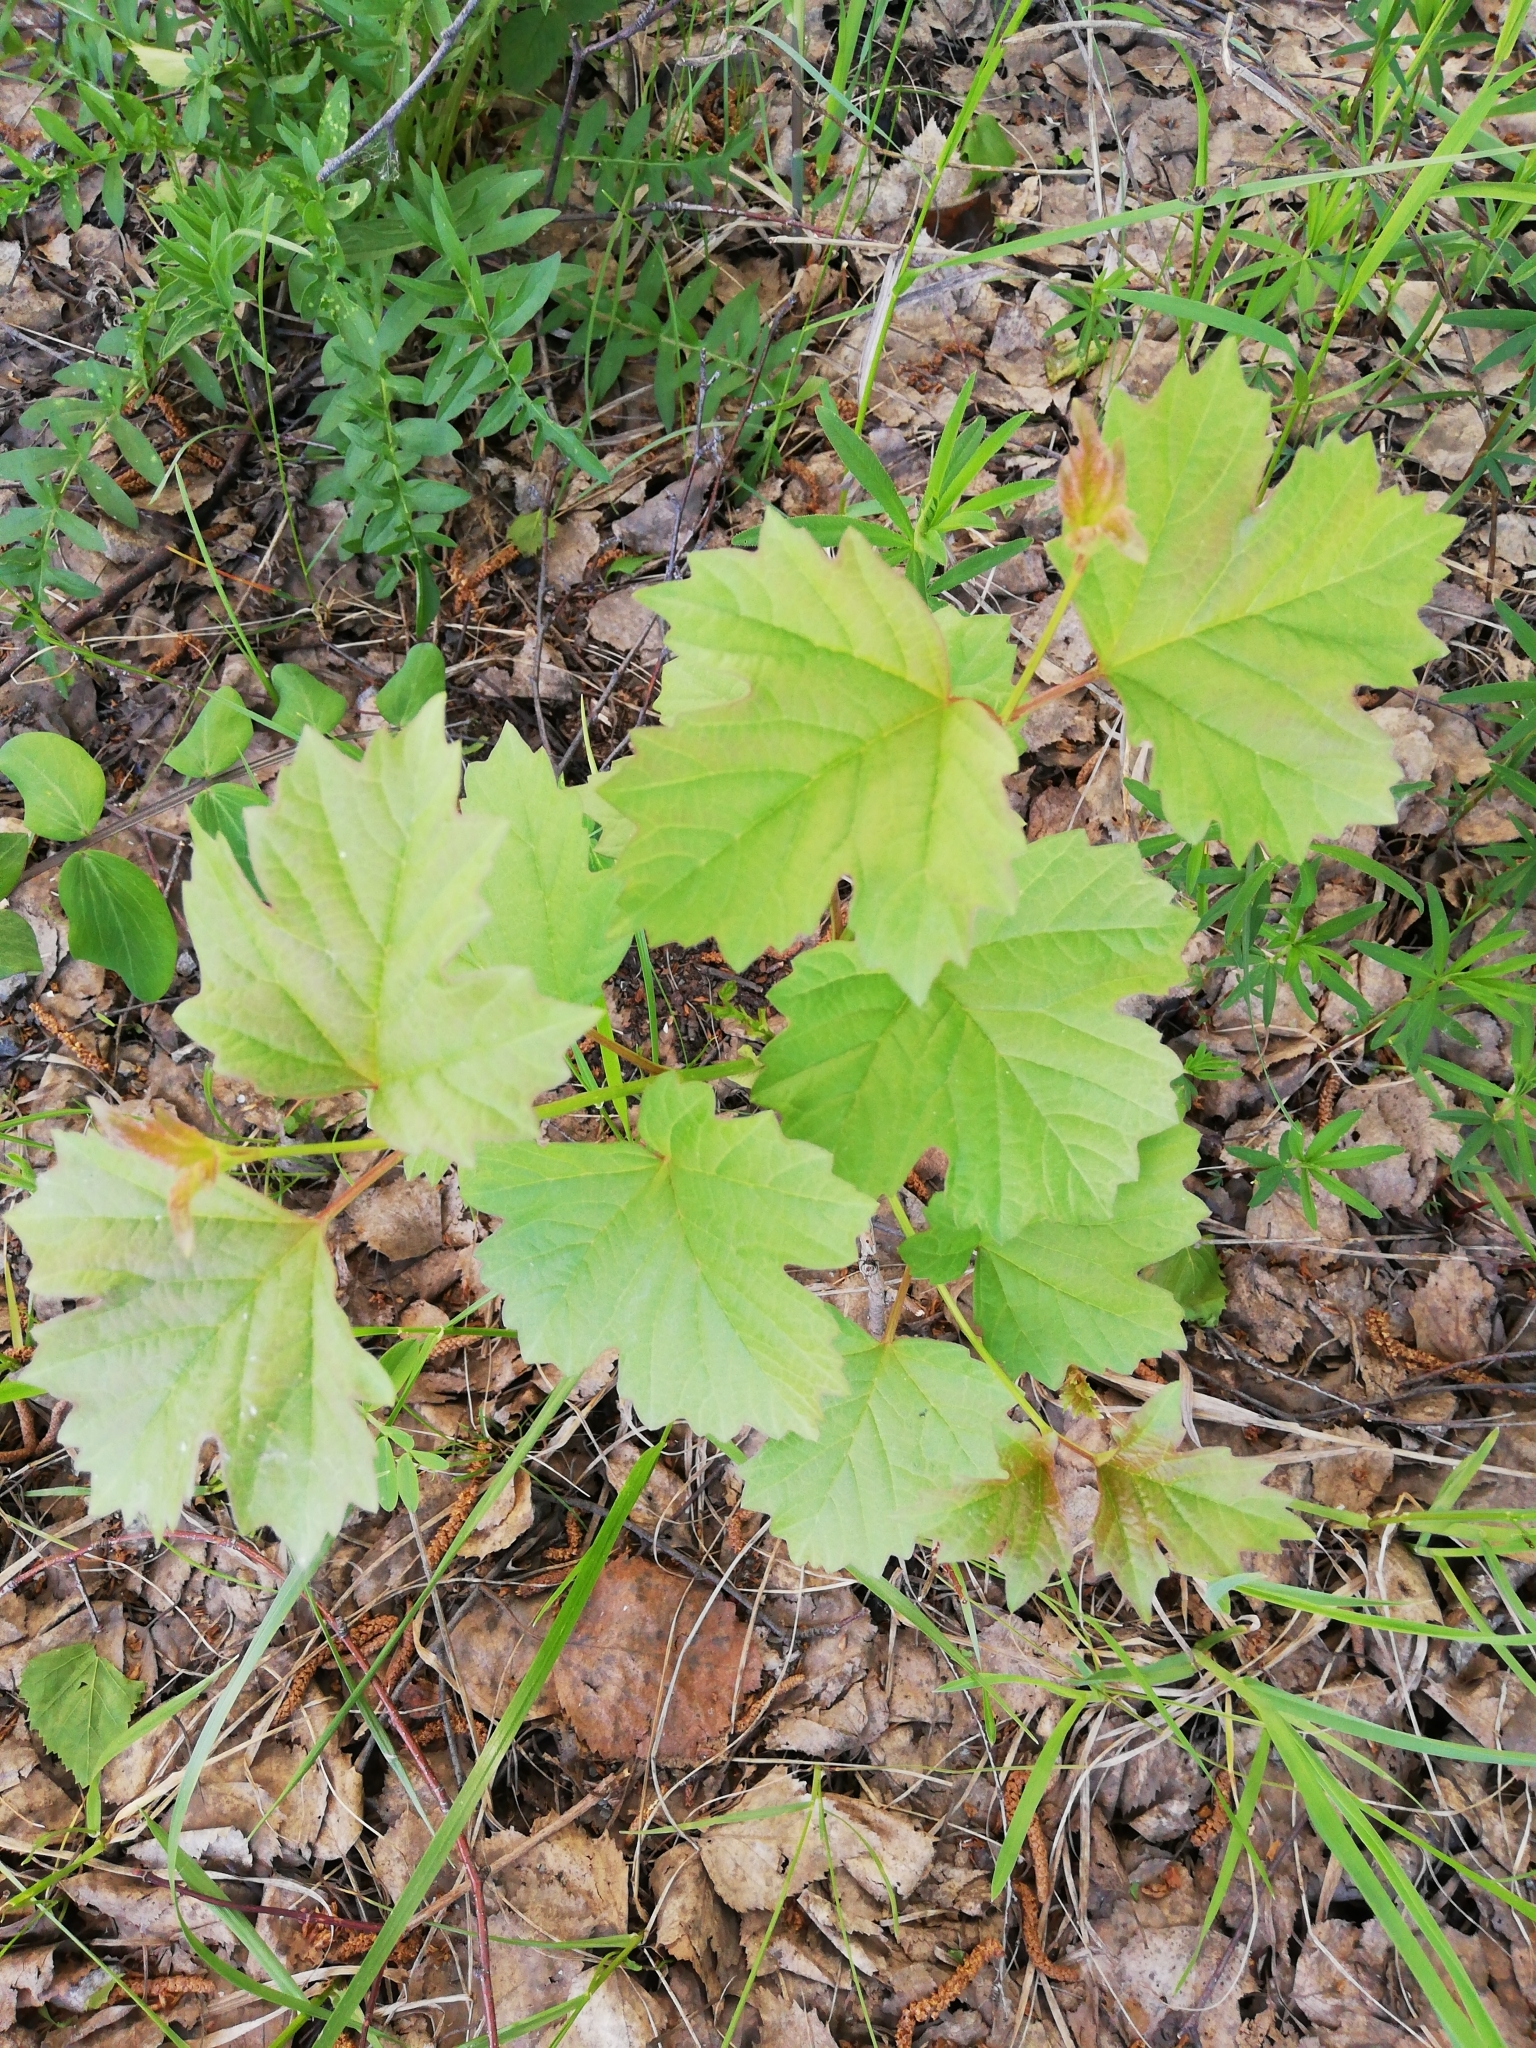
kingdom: Plantae
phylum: Tracheophyta
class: Magnoliopsida
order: Dipsacales
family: Viburnaceae
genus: Viburnum
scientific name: Viburnum opulus
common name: Guelder-rose
